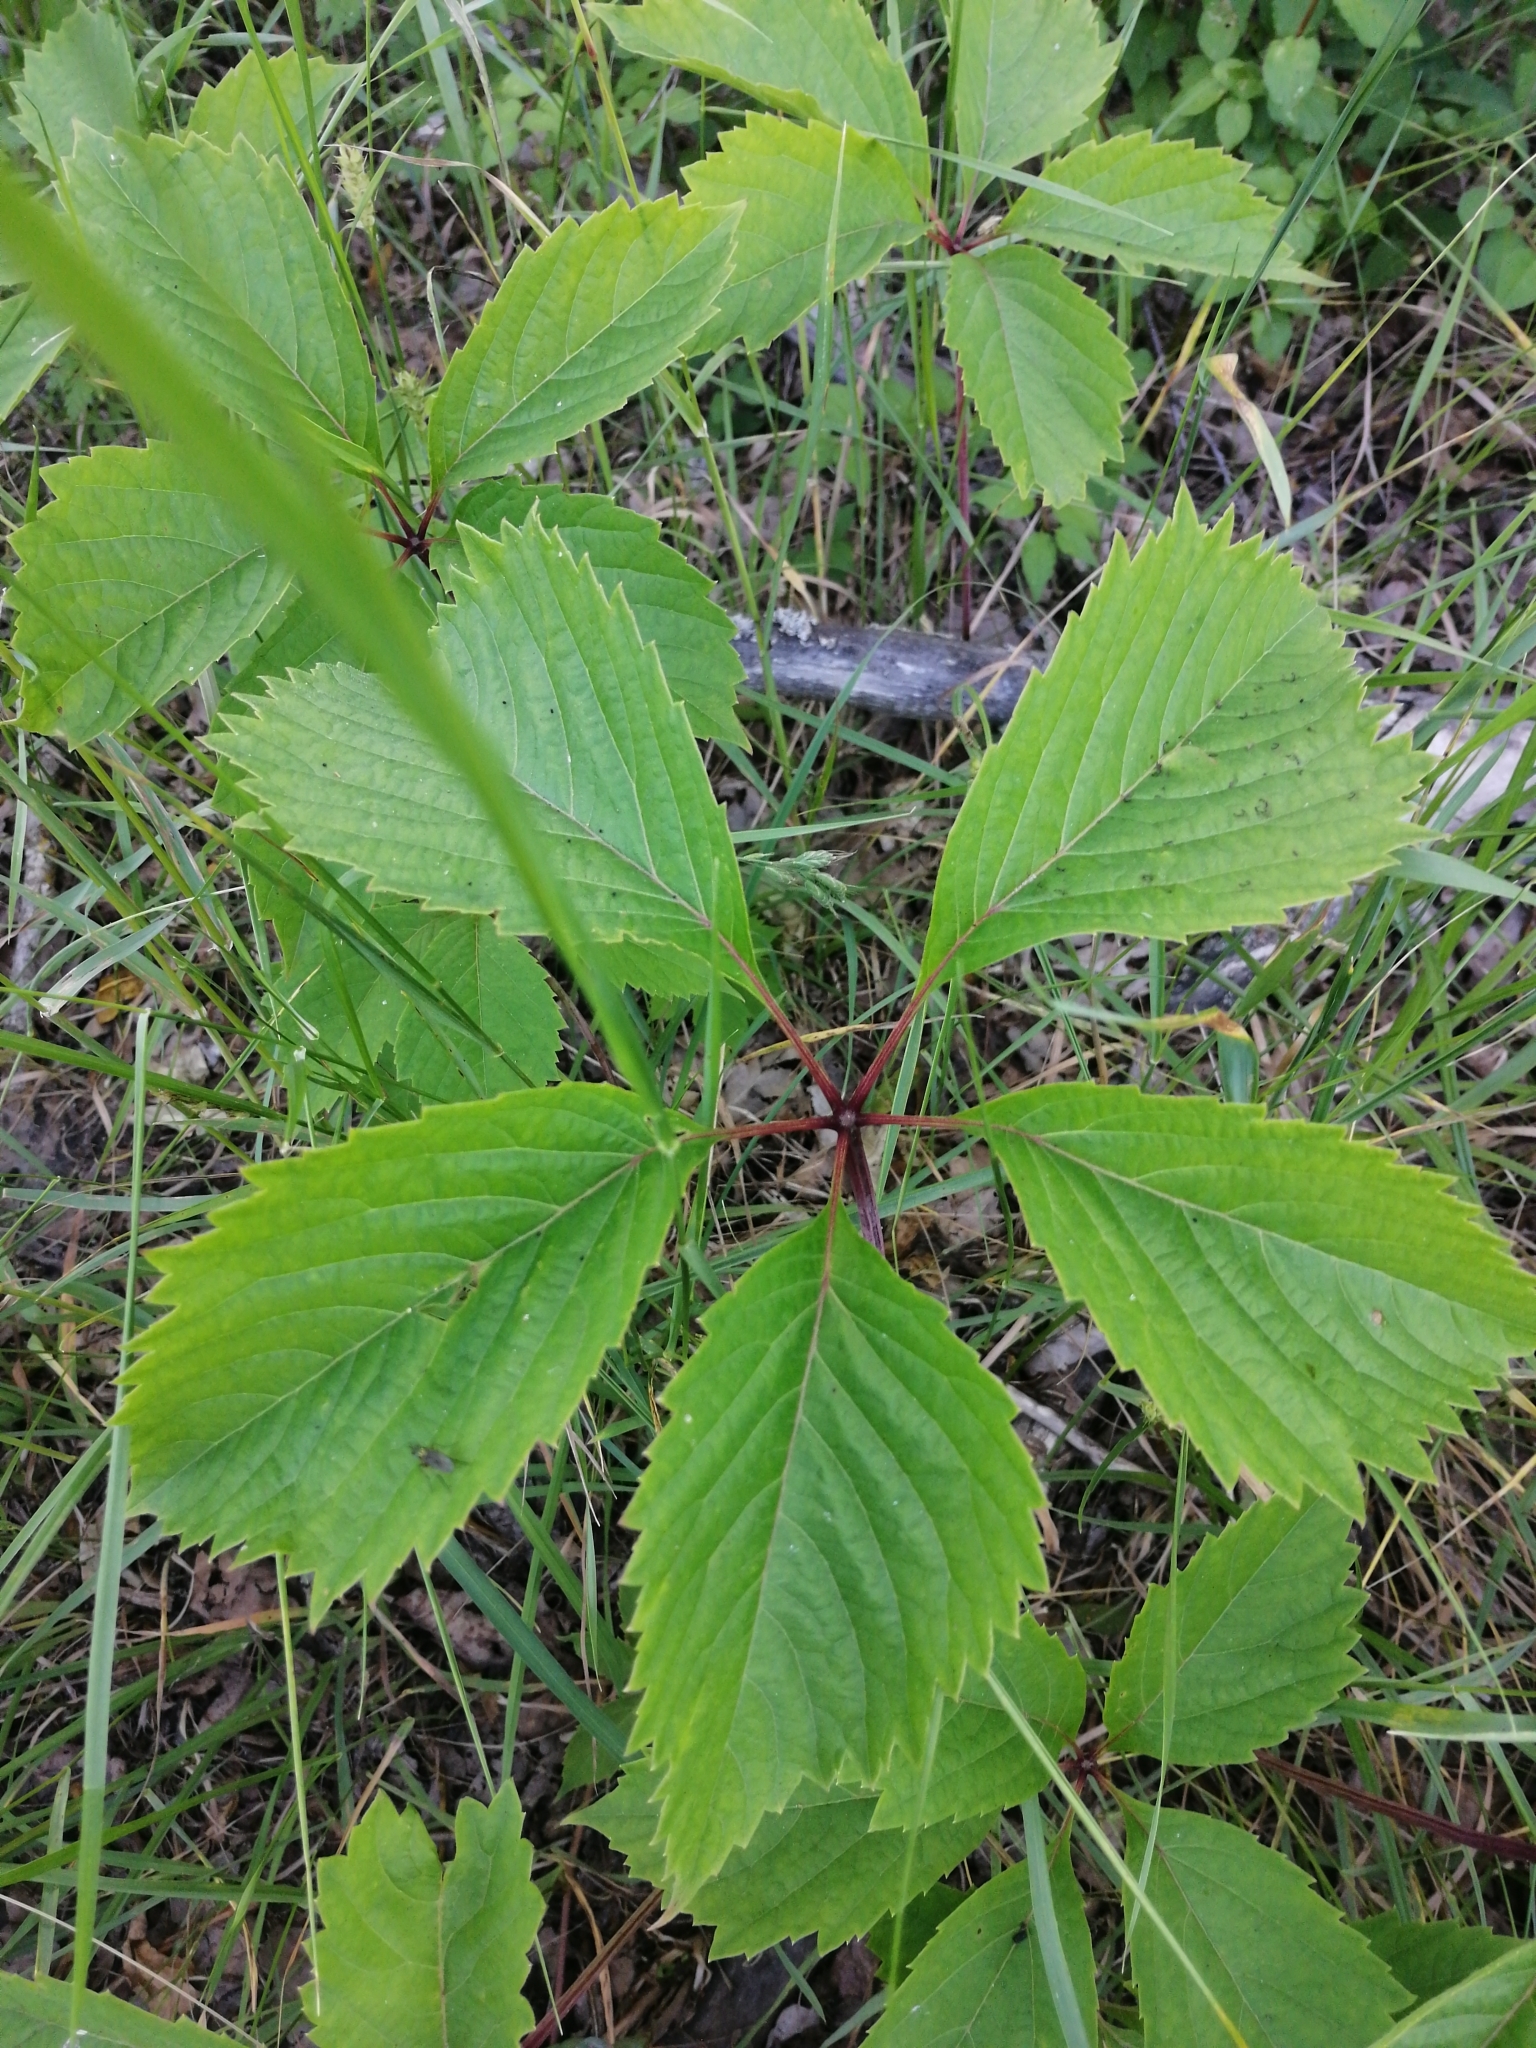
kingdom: Plantae
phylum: Tracheophyta
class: Magnoliopsida
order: Vitales
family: Vitaceae
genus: Parthenocissus
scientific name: Parthenocissus inserta
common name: False virginia-creeper
